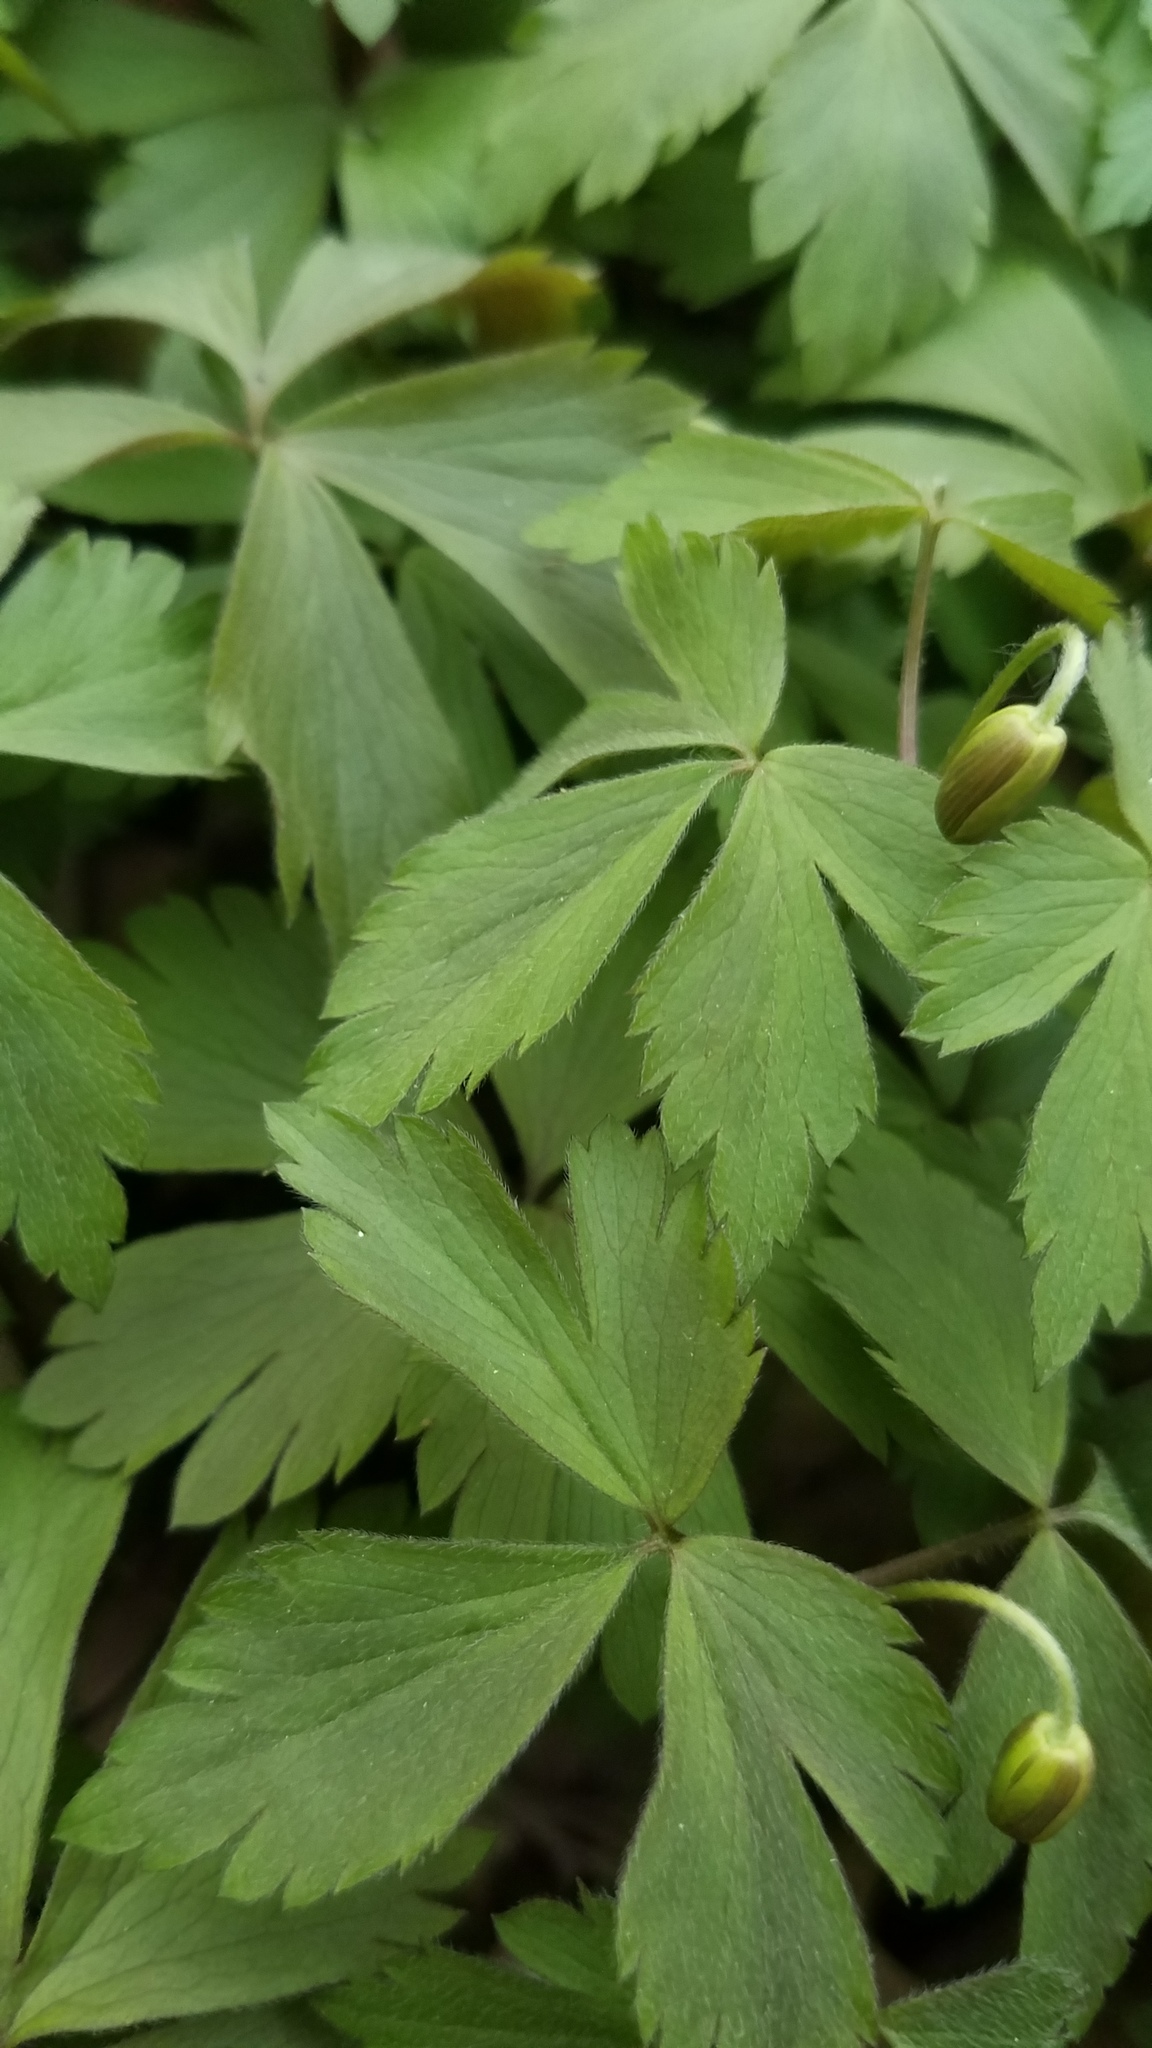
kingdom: Plantae
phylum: Tracheophyta
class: Magnoliopsida
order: Ranunculales
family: Ranunculaceae
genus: Anemone
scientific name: Anemone quinquefolia
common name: Wood anemone
